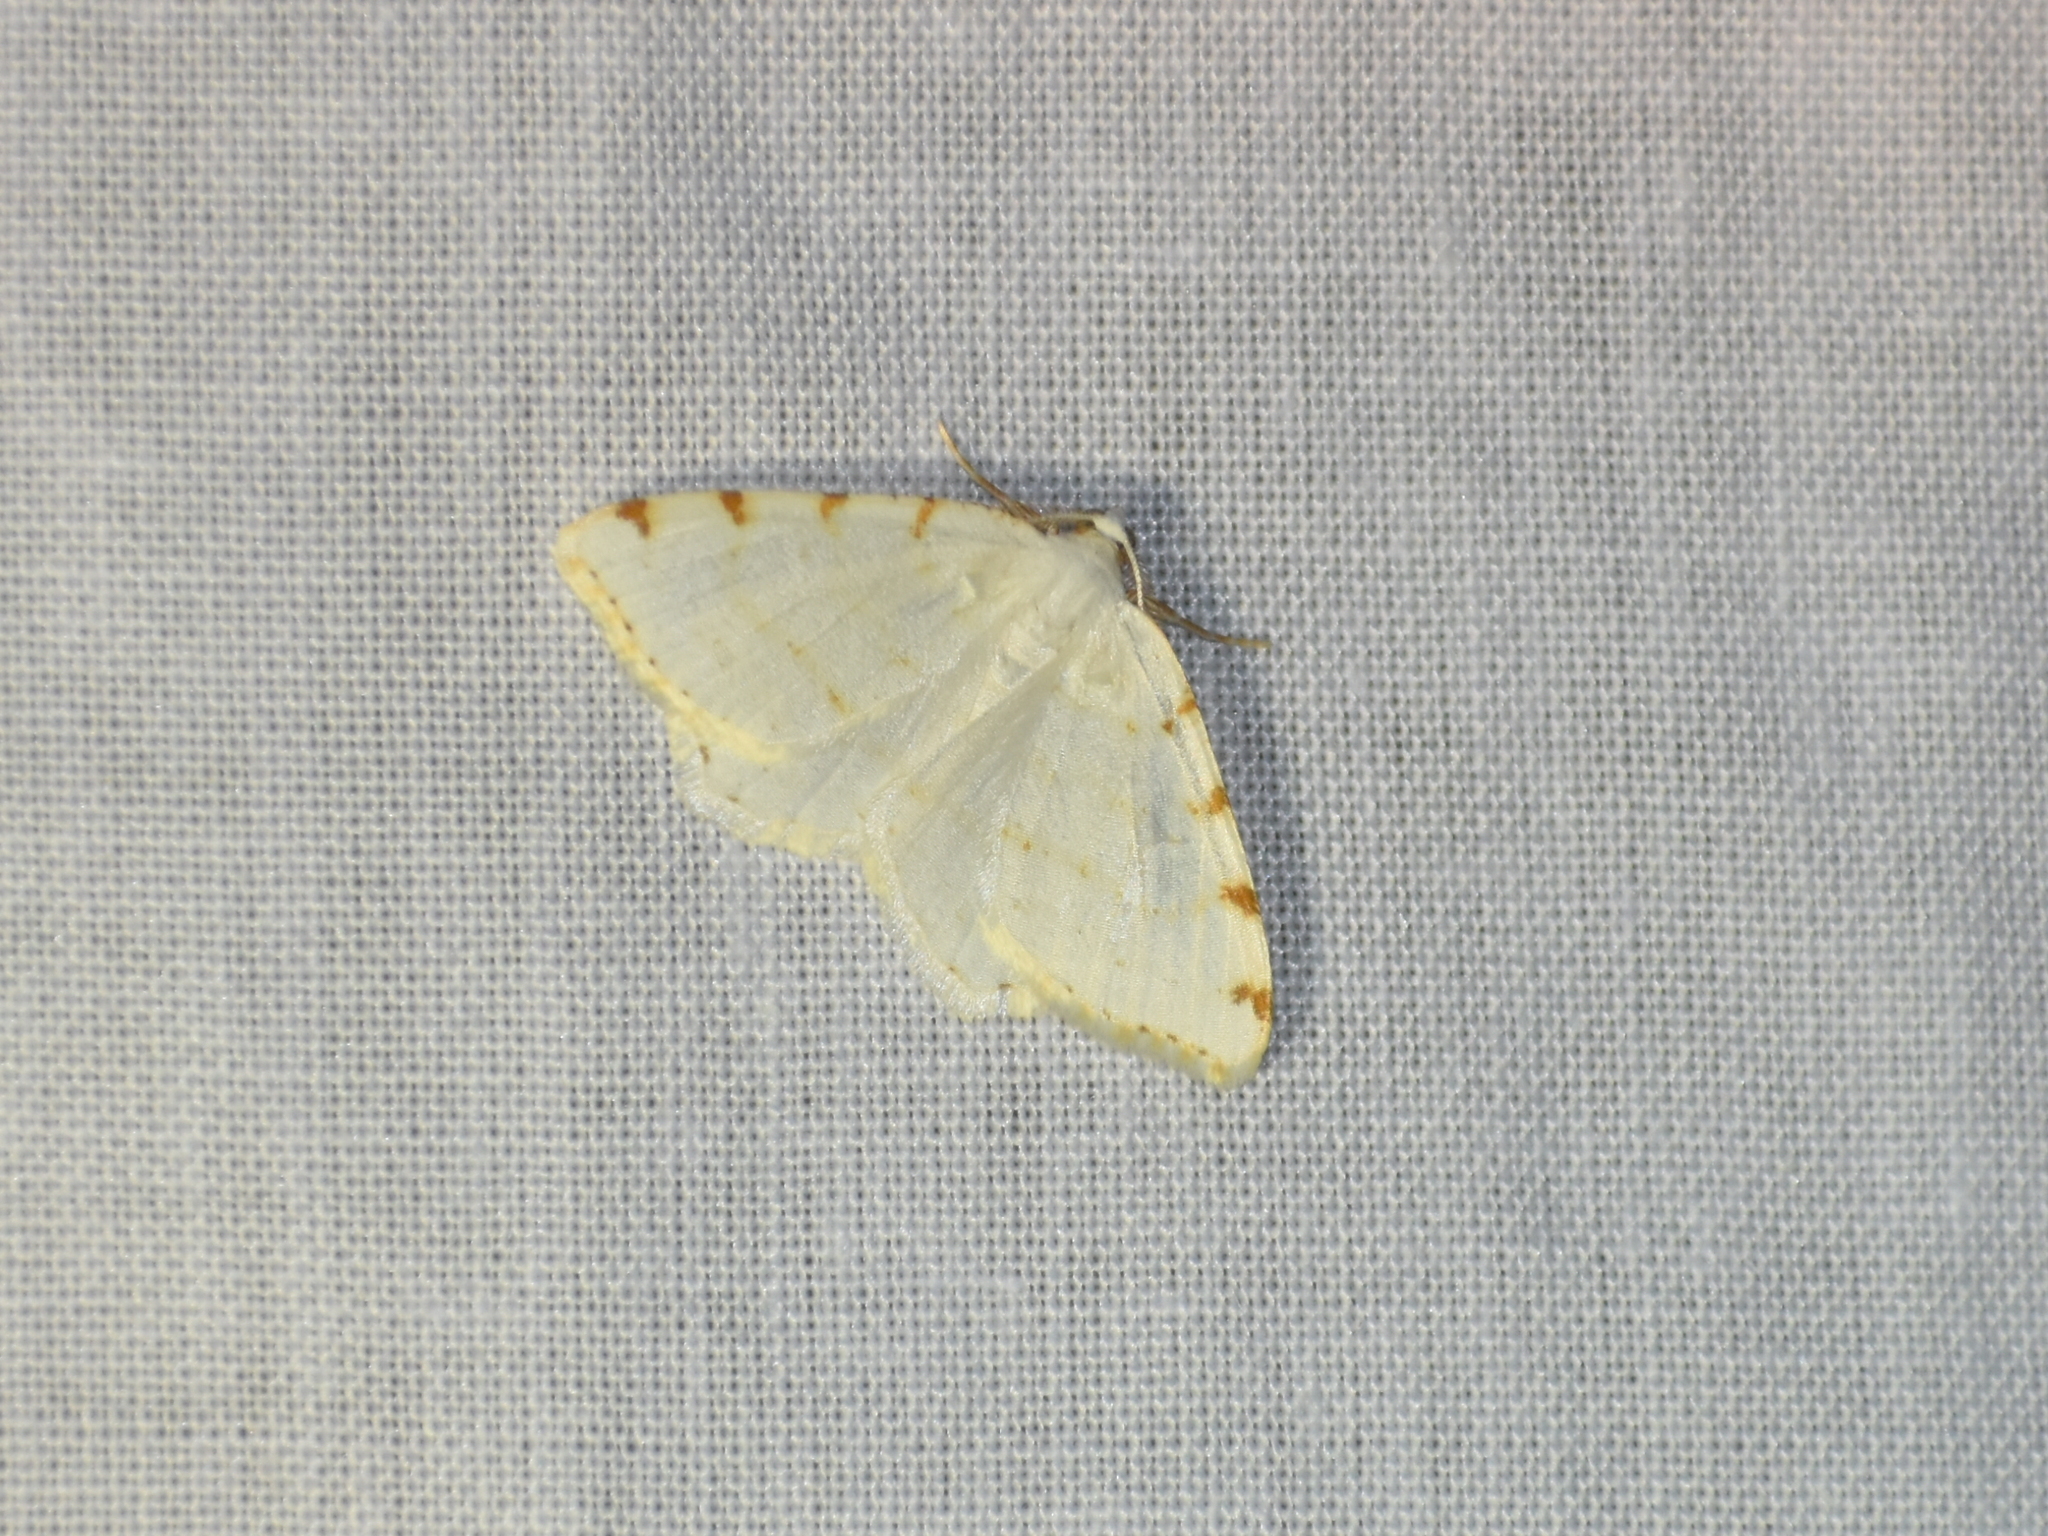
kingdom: Animalia
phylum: Arthropoda
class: Insecta
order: Lepidoptera
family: Geometridae
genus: Macaria
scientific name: Macaria pustularia
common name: Lesser maple spanworm moth
